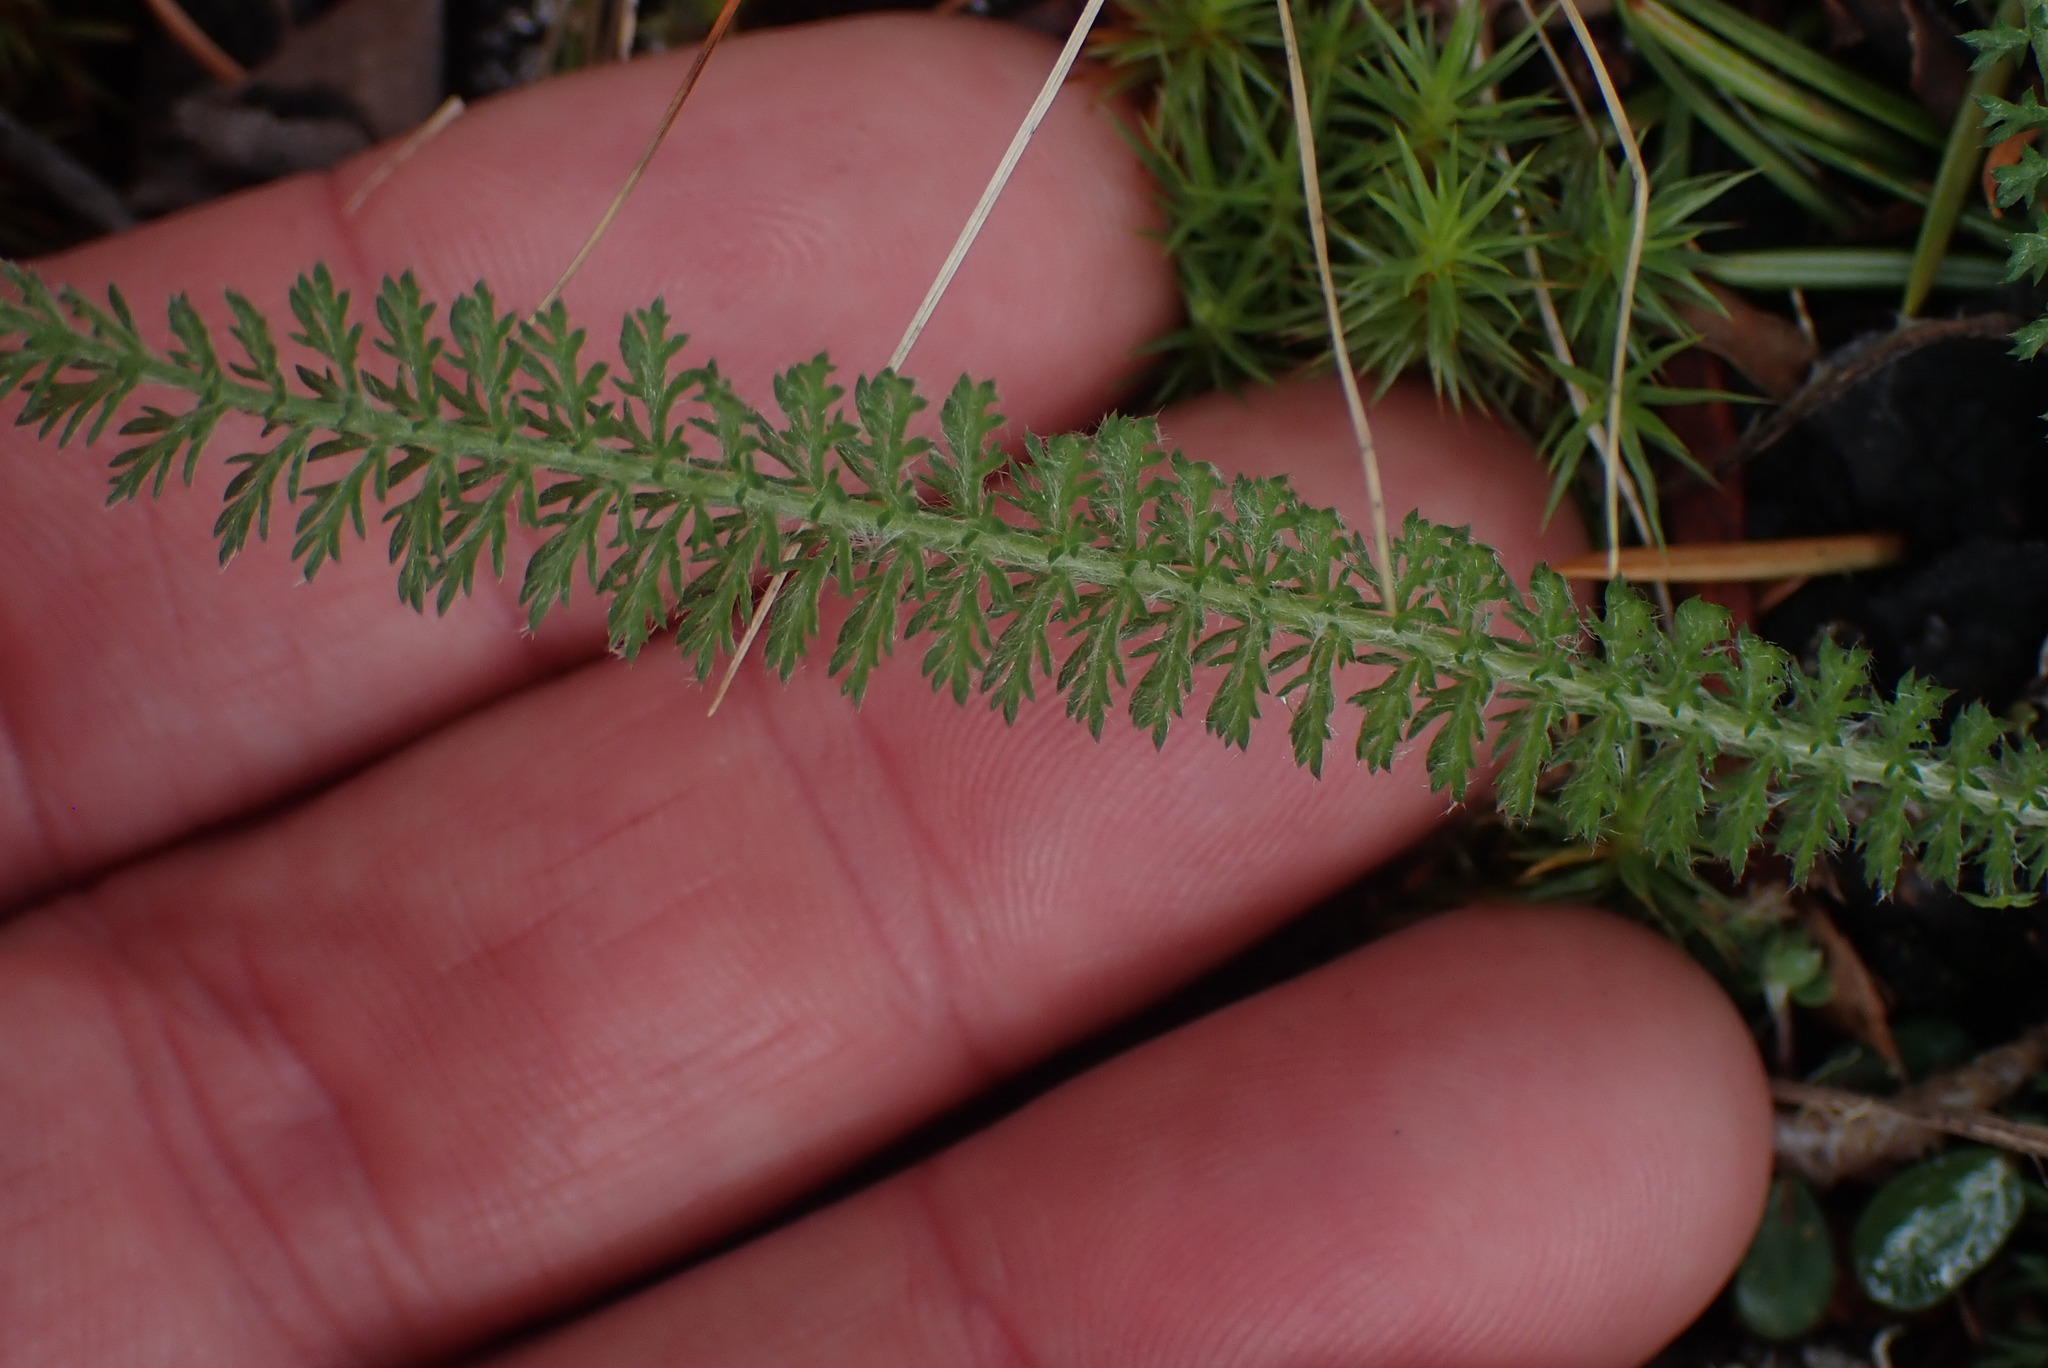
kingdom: Plantae
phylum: Tracheophyta
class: Magnoliopsida
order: Asterales
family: Asteraceae
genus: Achillea
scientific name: Achillea millefolium
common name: Yarrow
